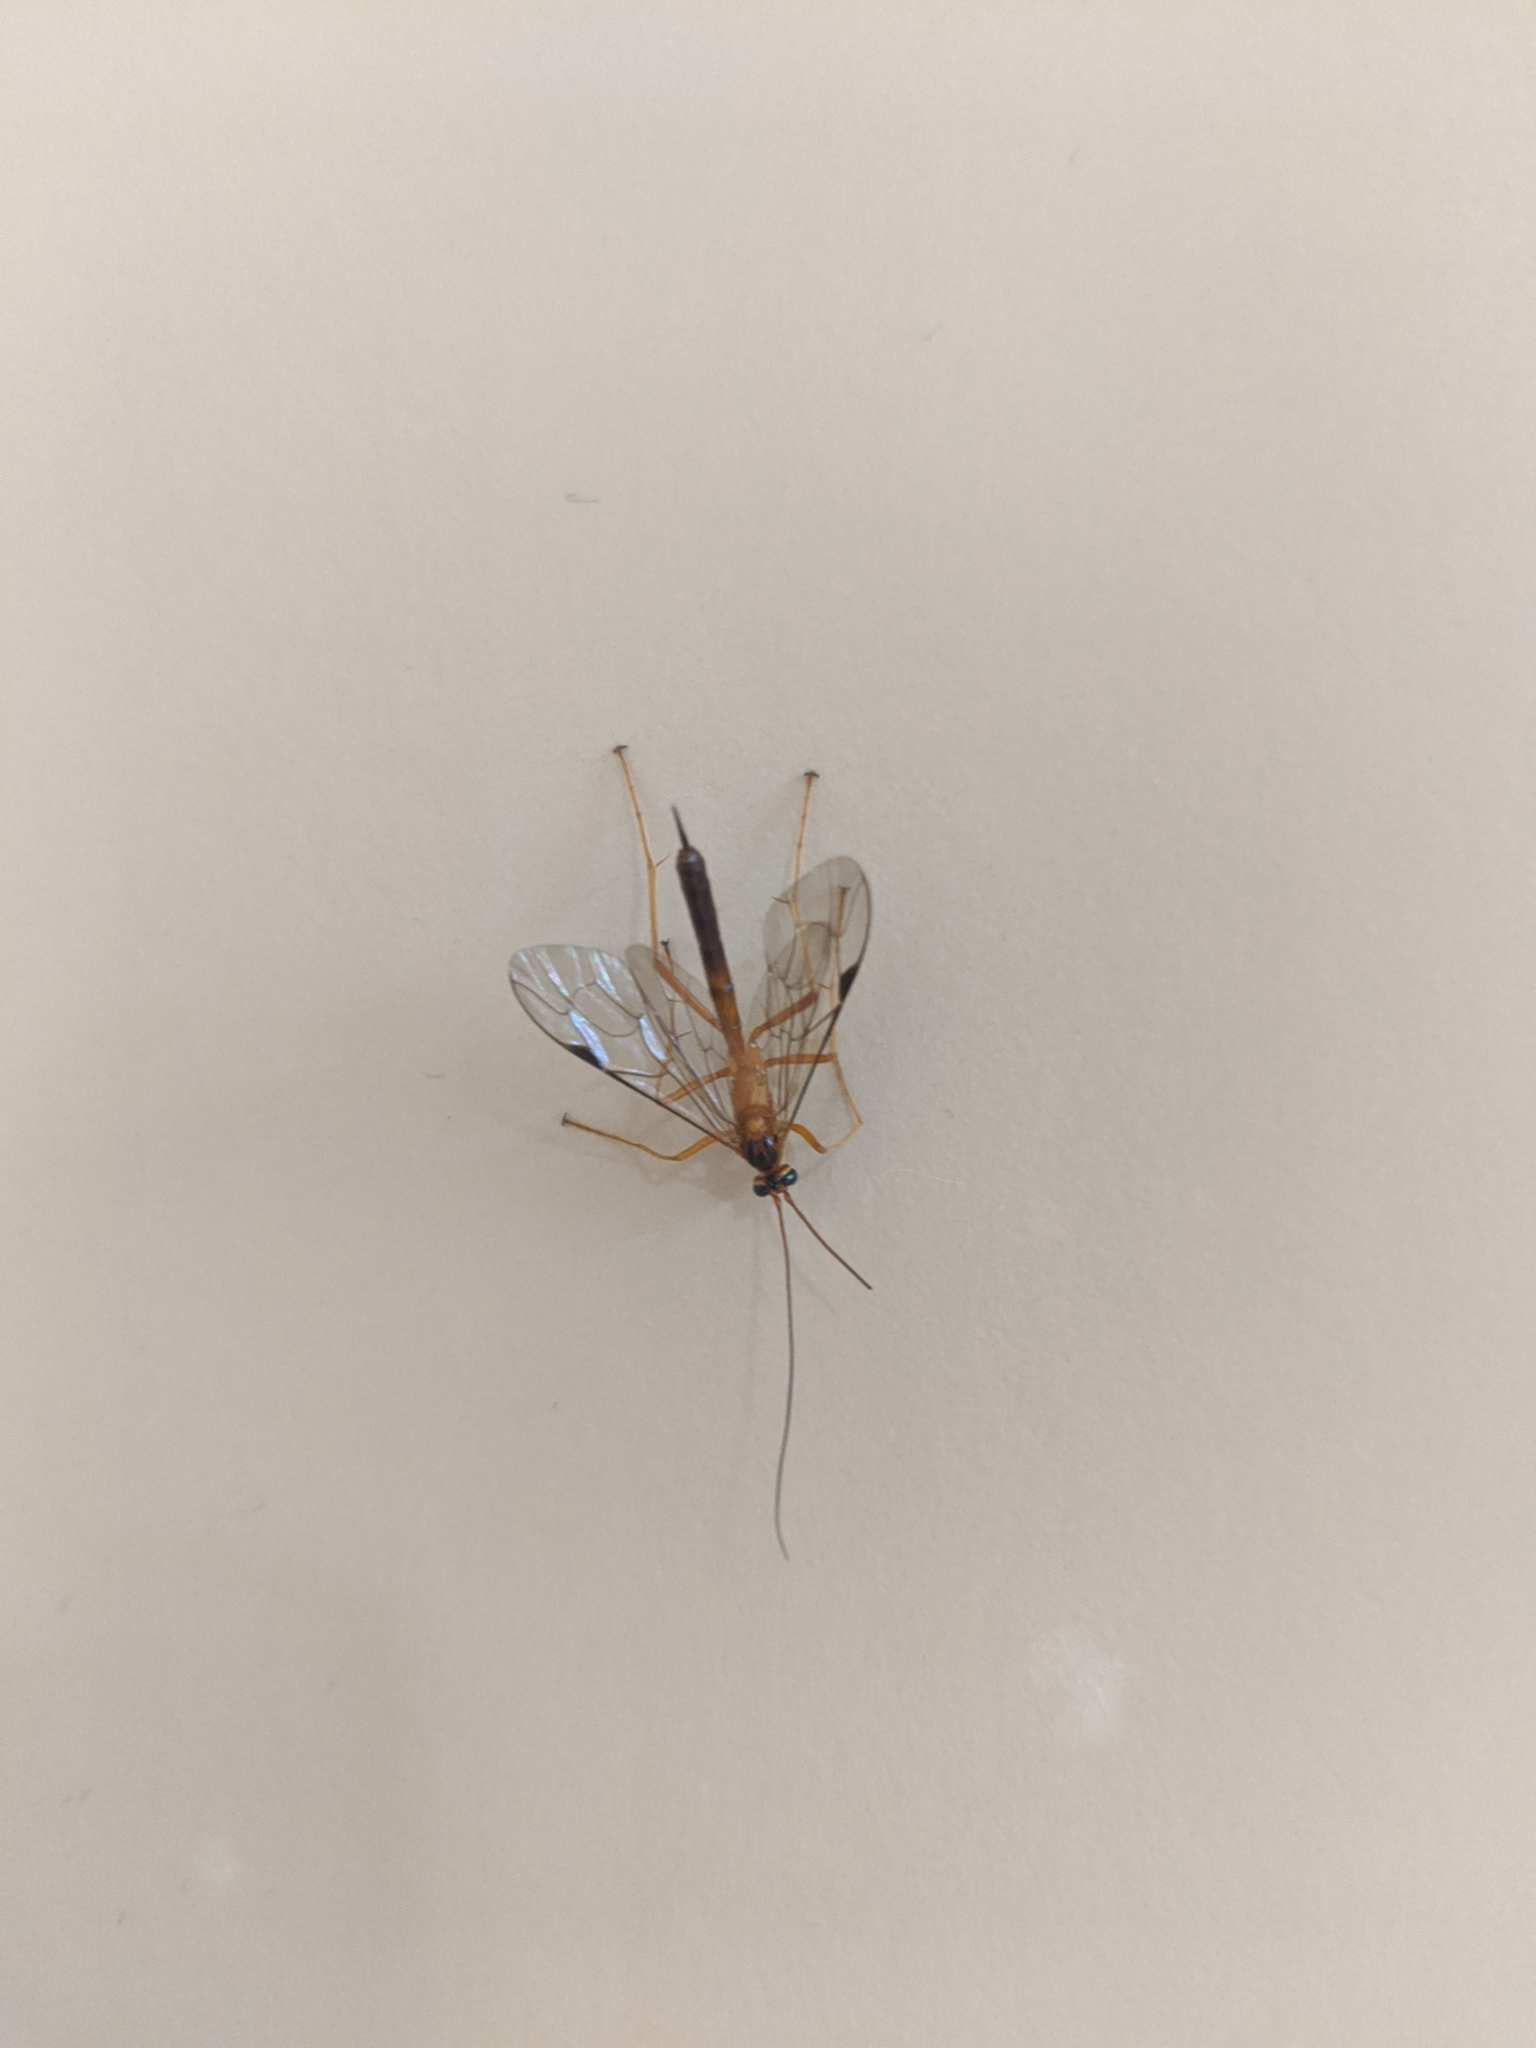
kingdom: Animalia
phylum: Arthropoda
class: Insecta
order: Hymenoptera
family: Ichneumonidae
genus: Netelia
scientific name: Netelia ephippiata
